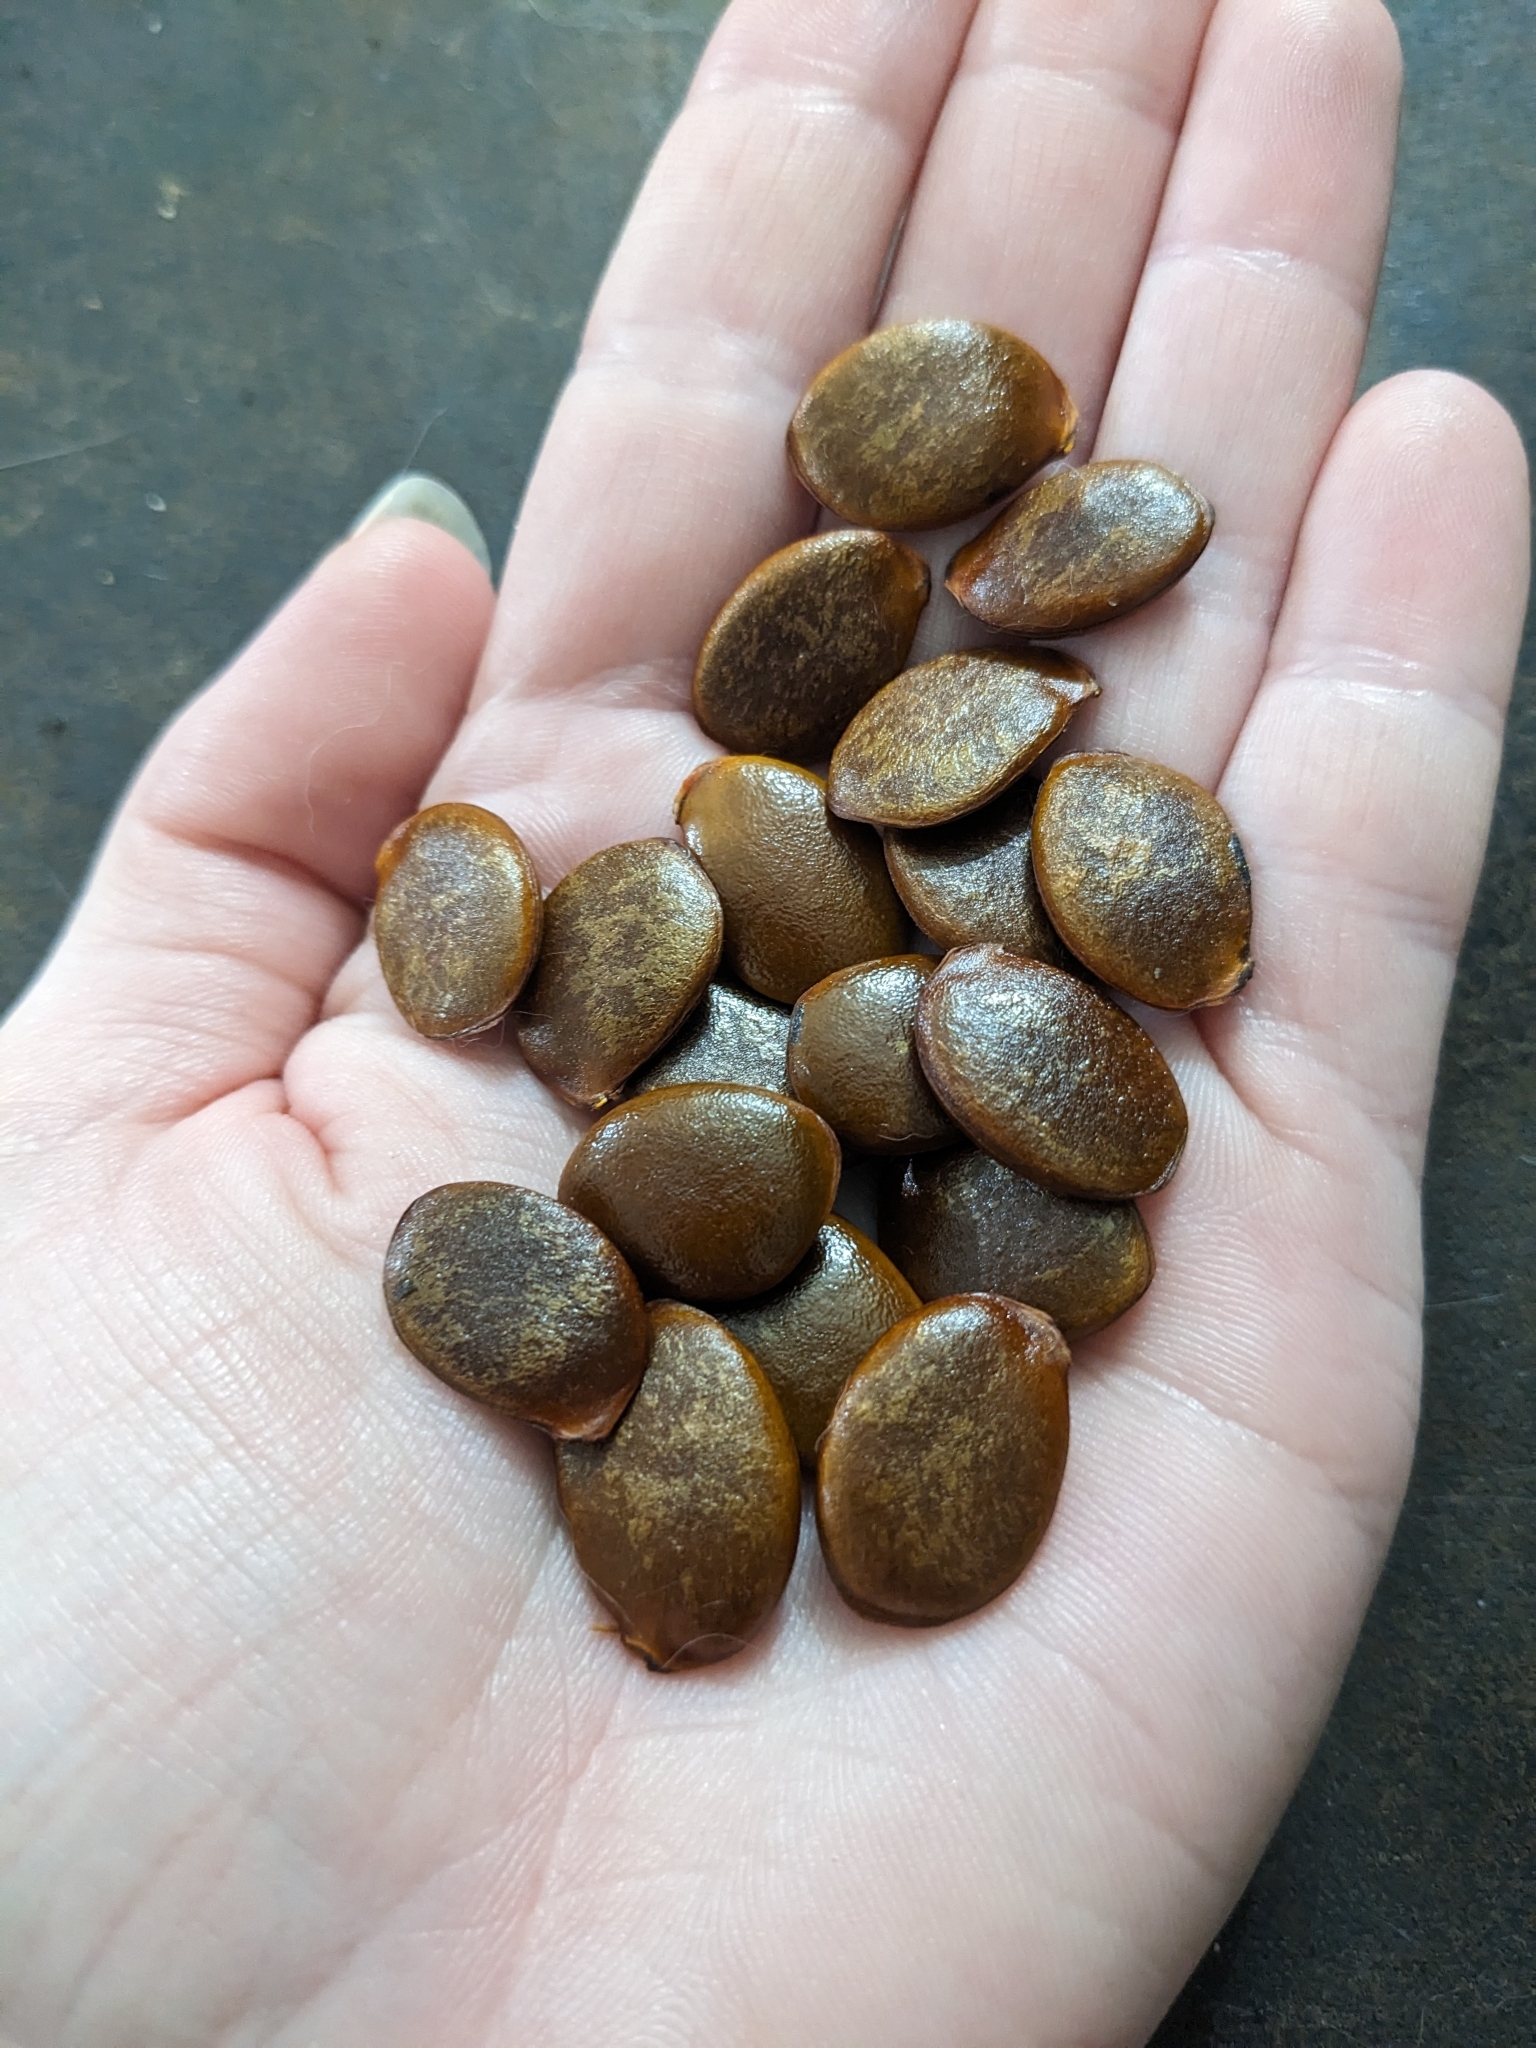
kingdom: Plantae
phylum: Tracheophyta
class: Magnoliopsida
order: Ericales
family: Ebenaceae
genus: Diospyros
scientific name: Diospyros virginiana
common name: Persimmon
